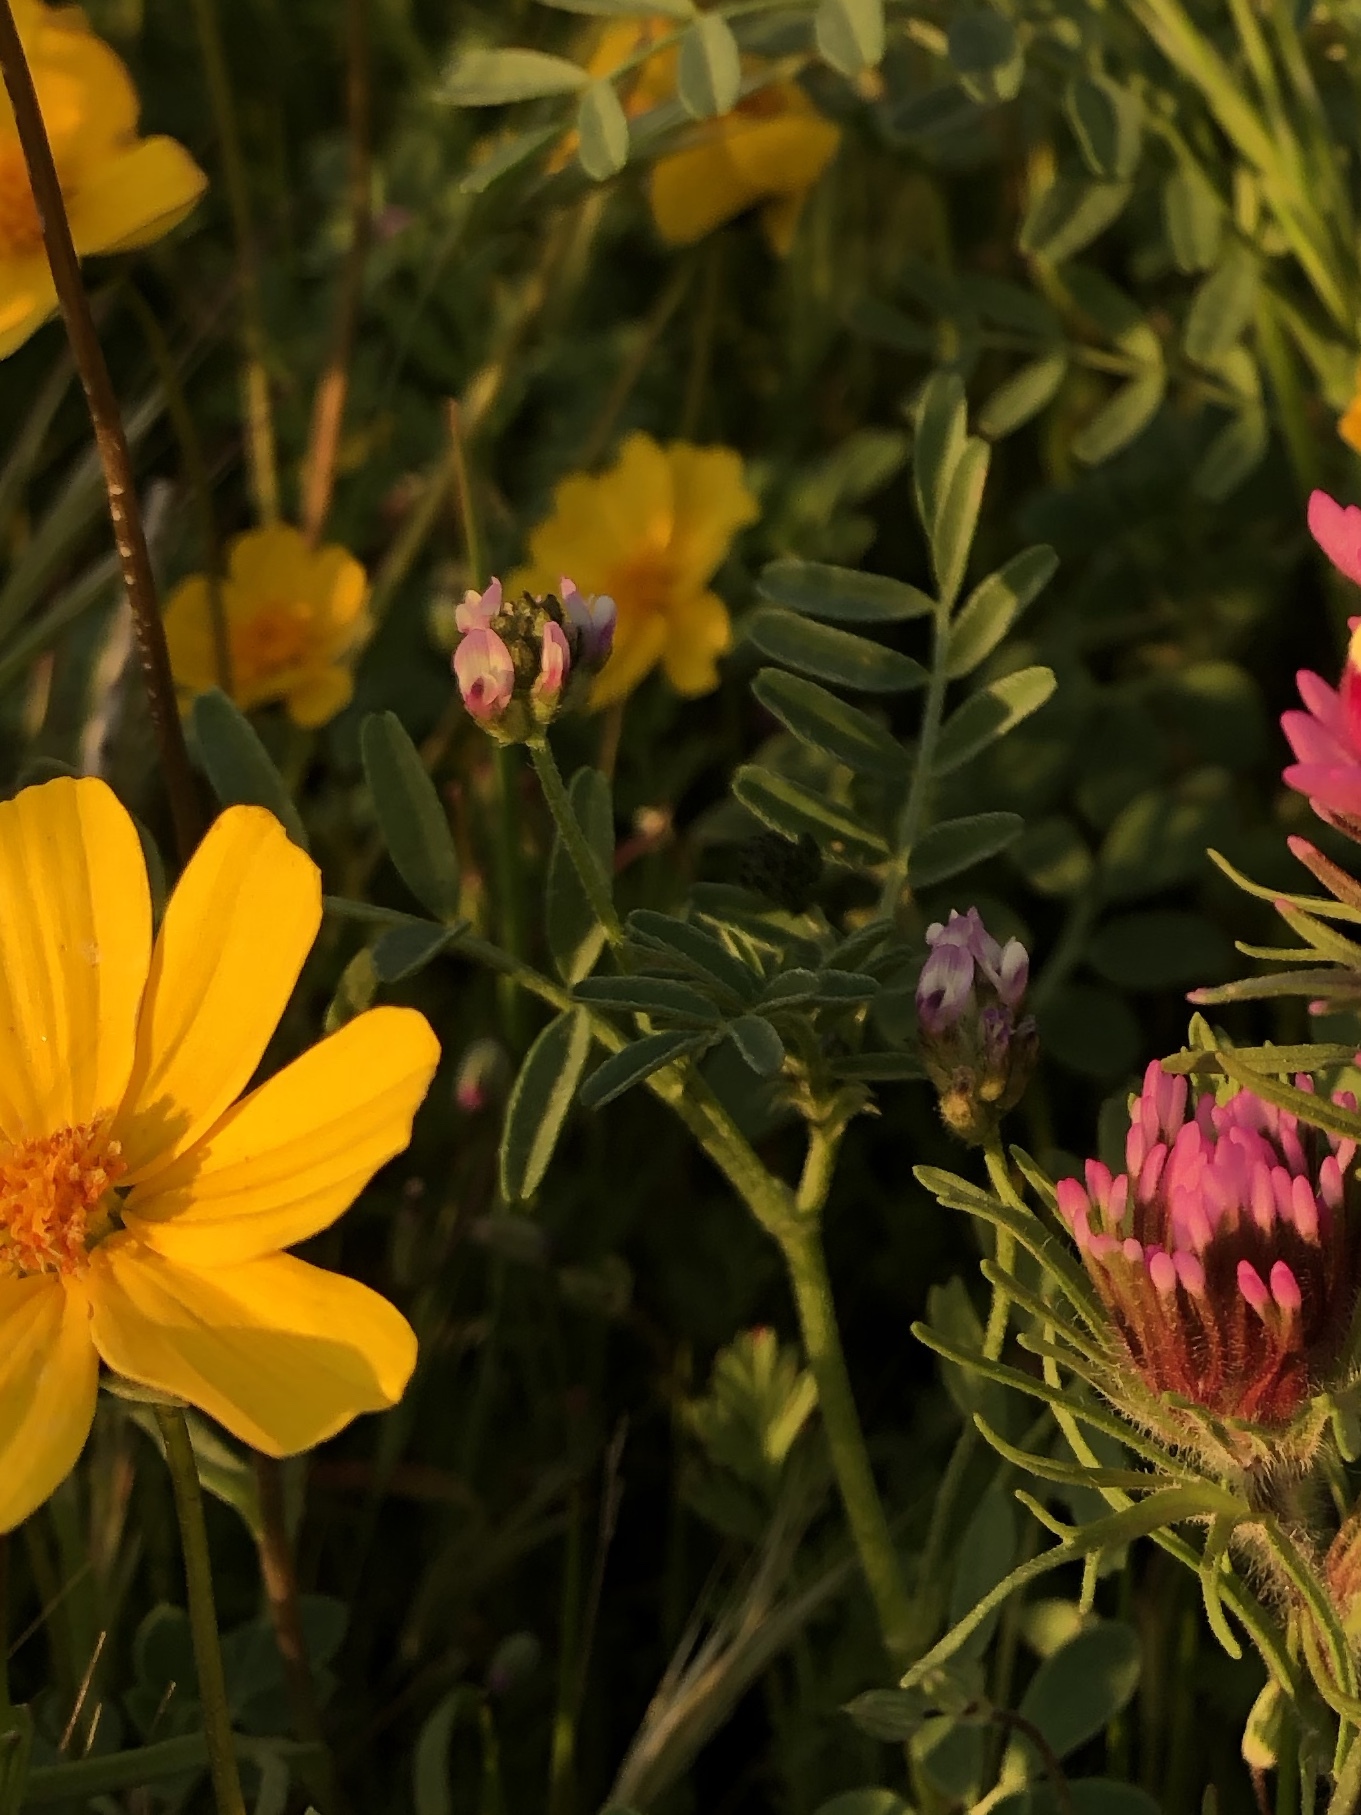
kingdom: Plantae
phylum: Tracheophyta
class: Magnoliopsida
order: Fabales
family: Fabaceae
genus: Astragalus
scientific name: Astragalus didymocarpus
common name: Dwarf white milkvetch
